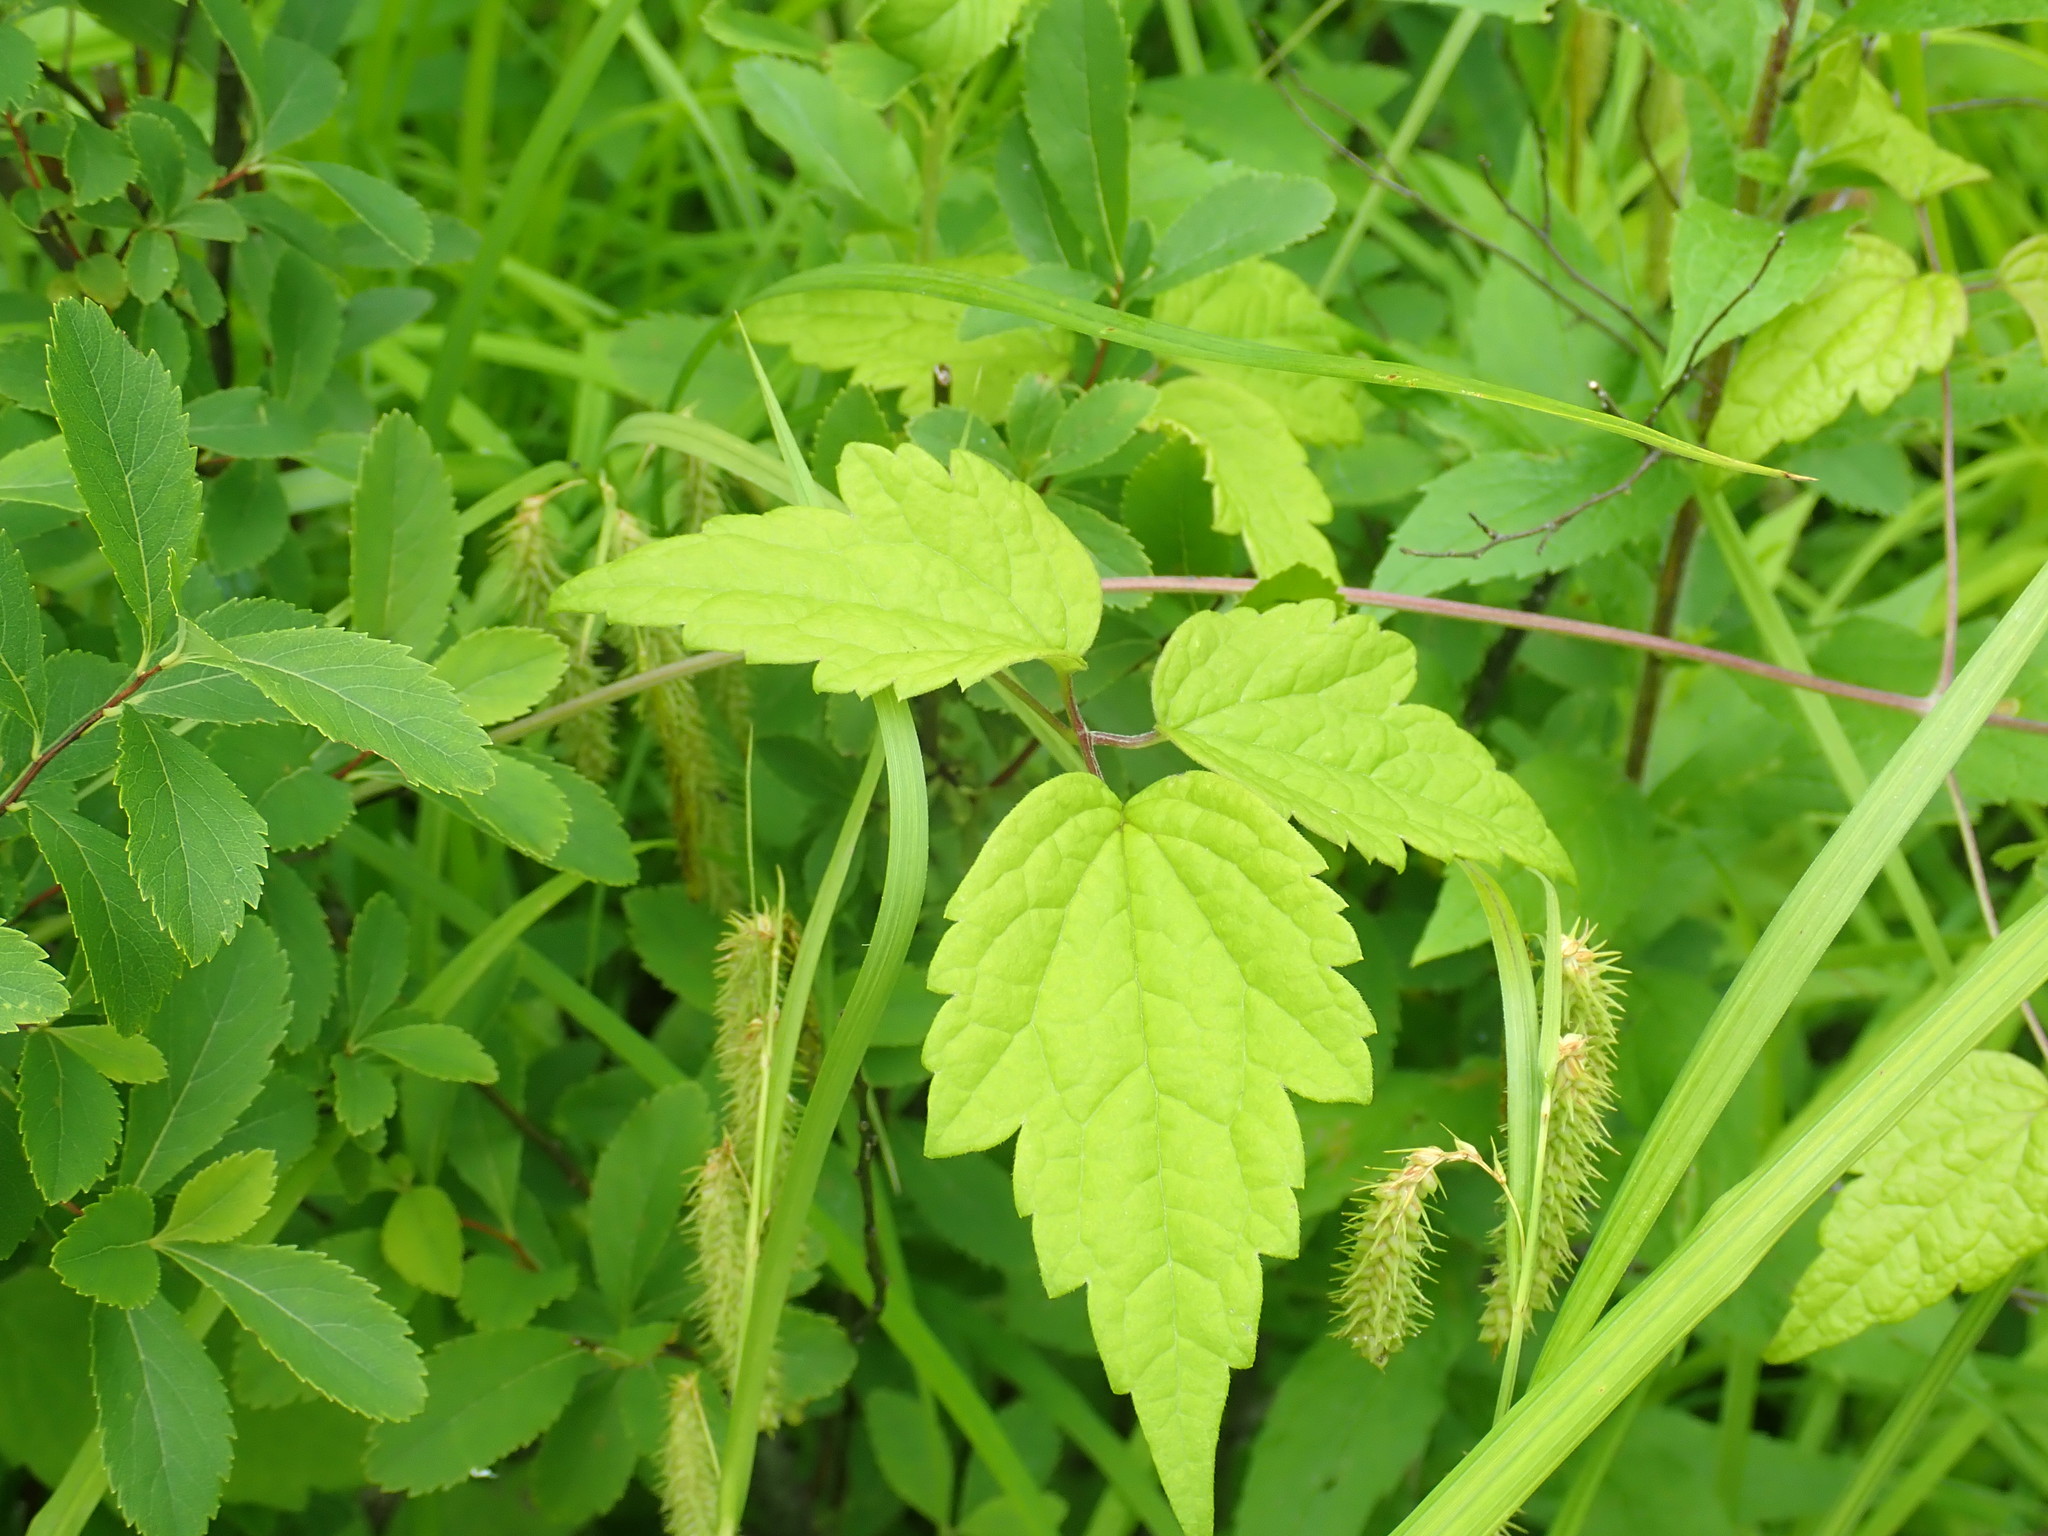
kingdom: Plantae
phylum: Tracheophyta
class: Magnoliopsida
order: Ranunculales
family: Ranunculaceae
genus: Clematis
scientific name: Clematis virginiana
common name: Virgin's-bower
